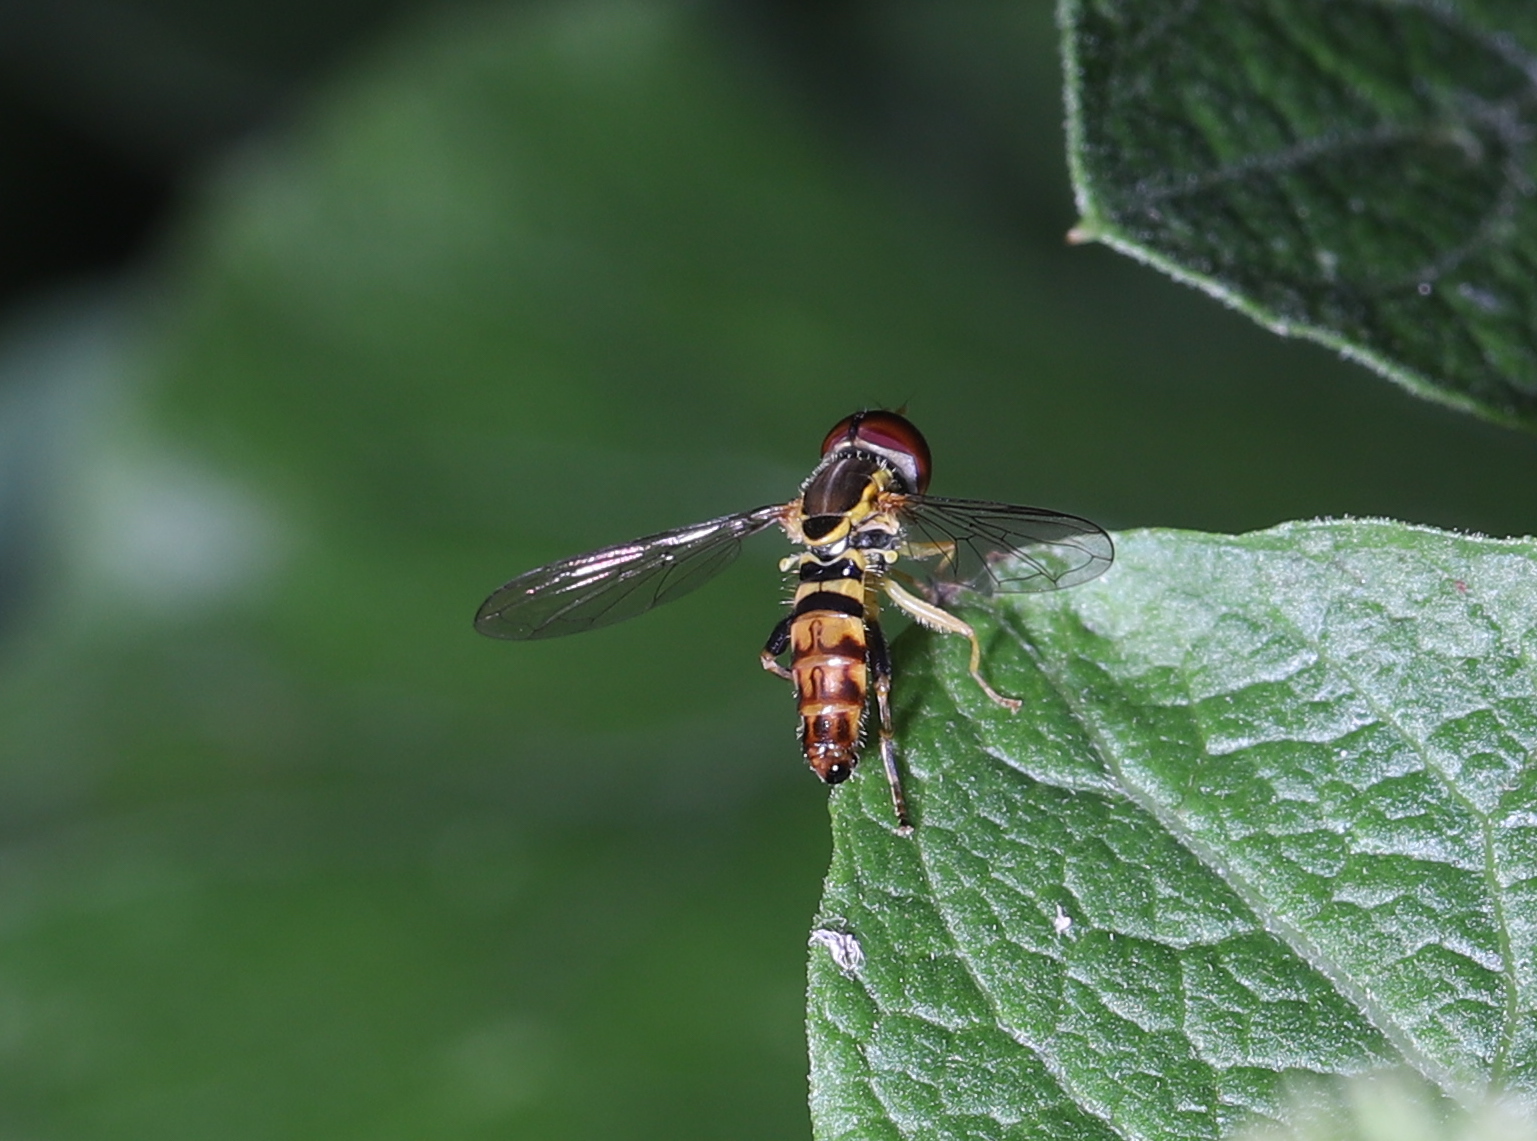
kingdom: Animalia
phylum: Arthropoda
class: Insecta
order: Diptera
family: Syrphidae
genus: Toxomerus
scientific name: Toxomerus geminatus
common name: Eastern calligrapher
